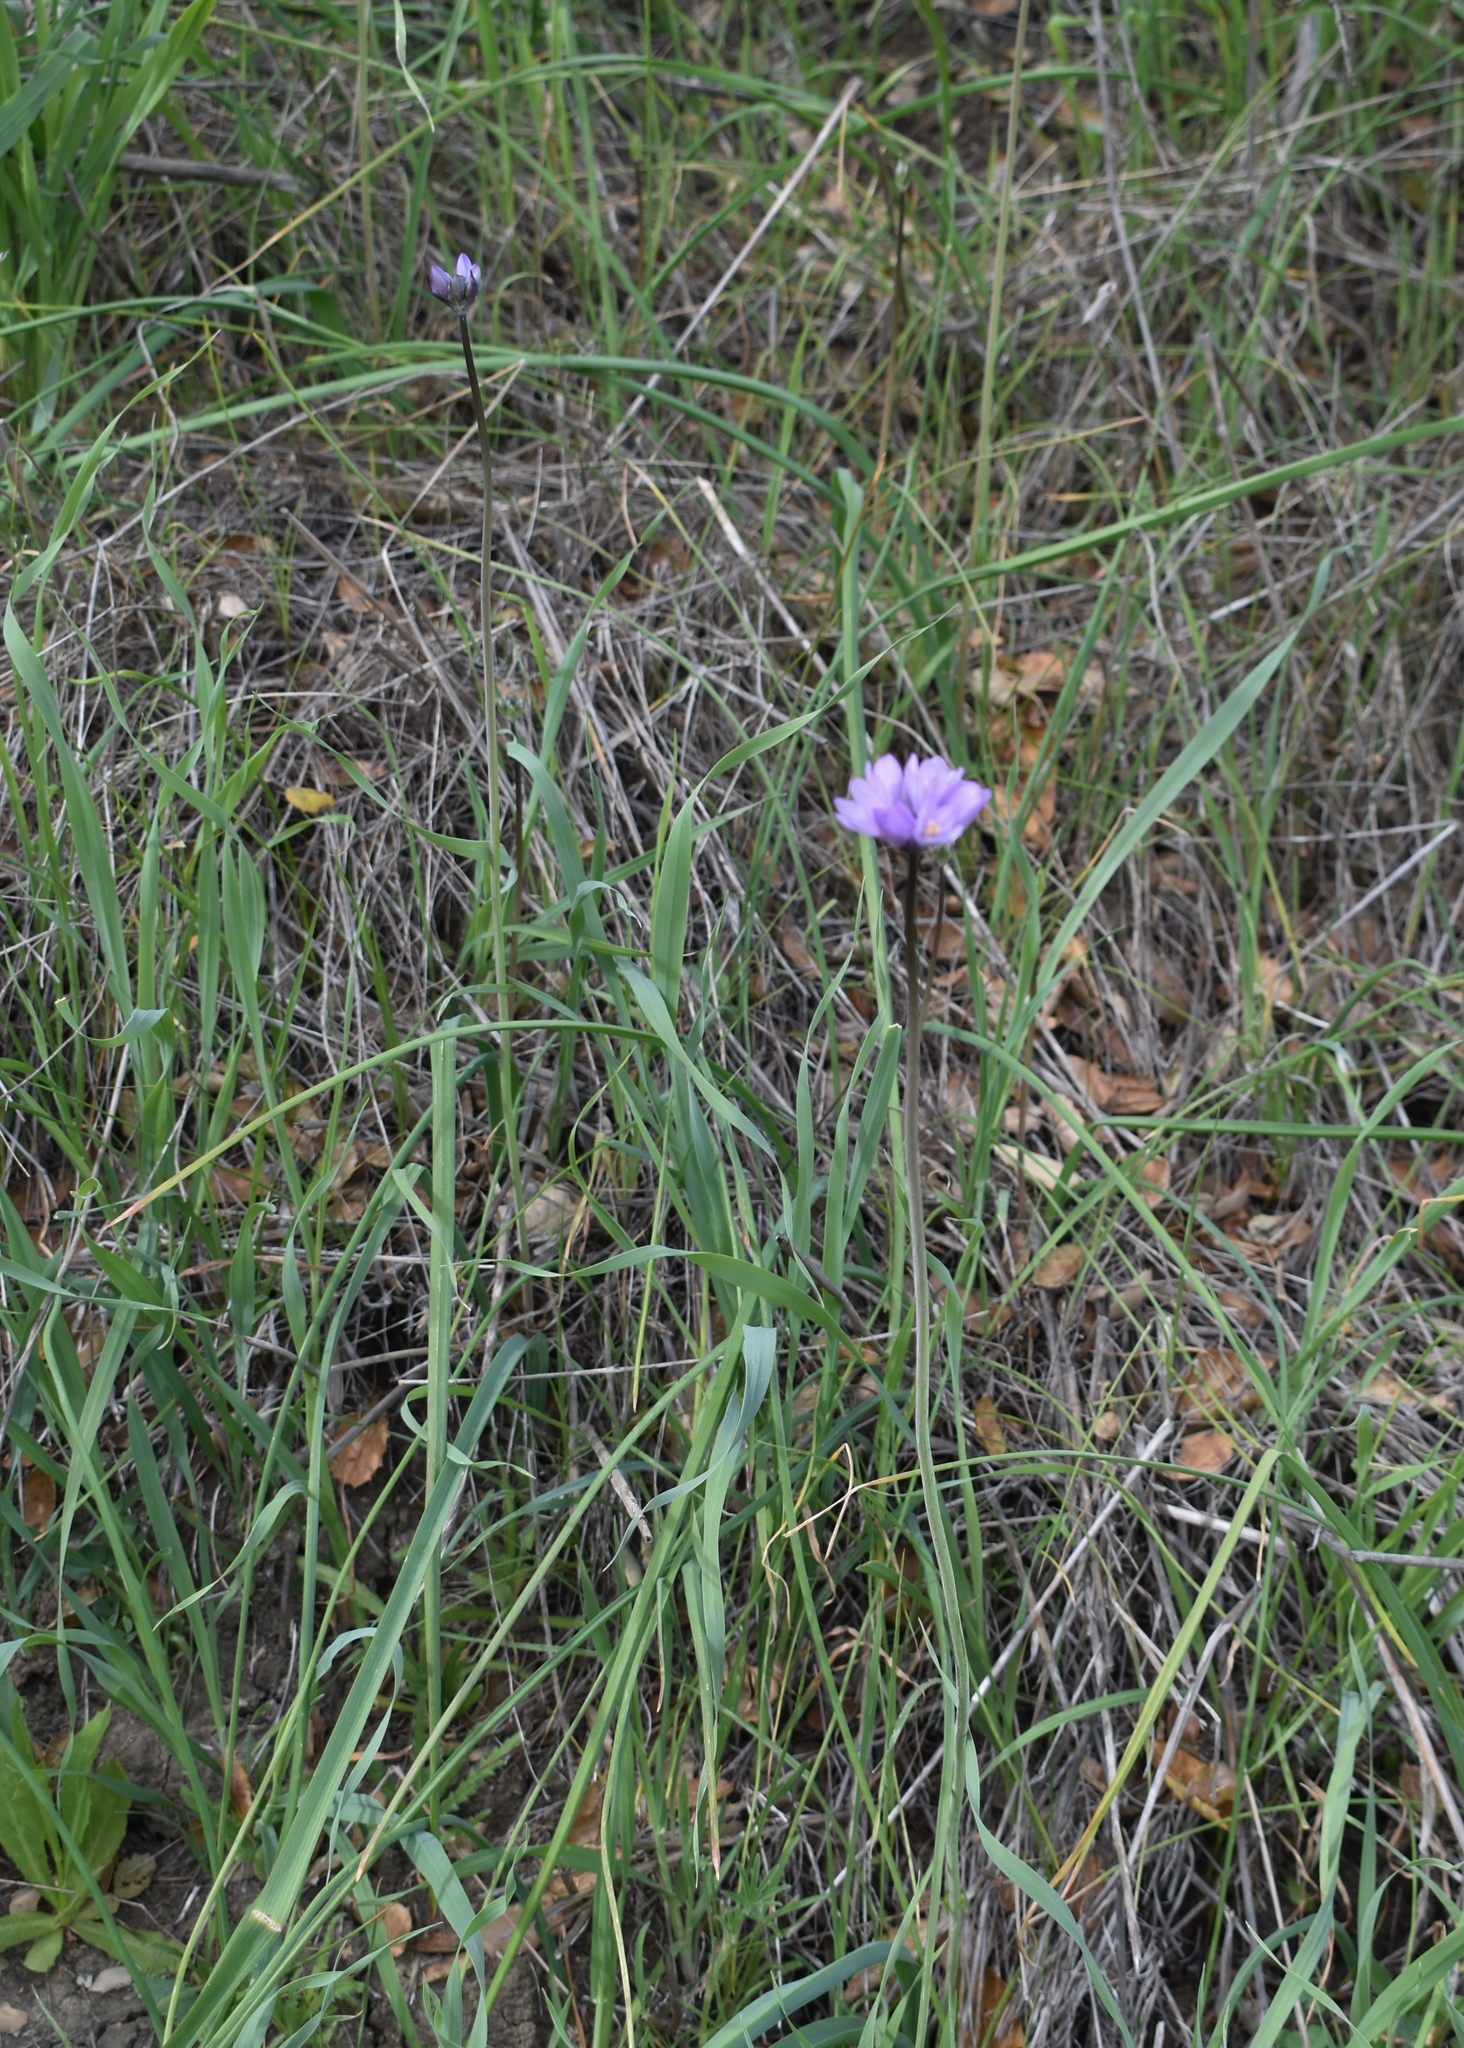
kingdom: Plantae
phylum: Tracheophyta
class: Liliopsida
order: Asparagales
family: Asparagaceae
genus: Dipterostemon
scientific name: Dipterostemon capitatus
